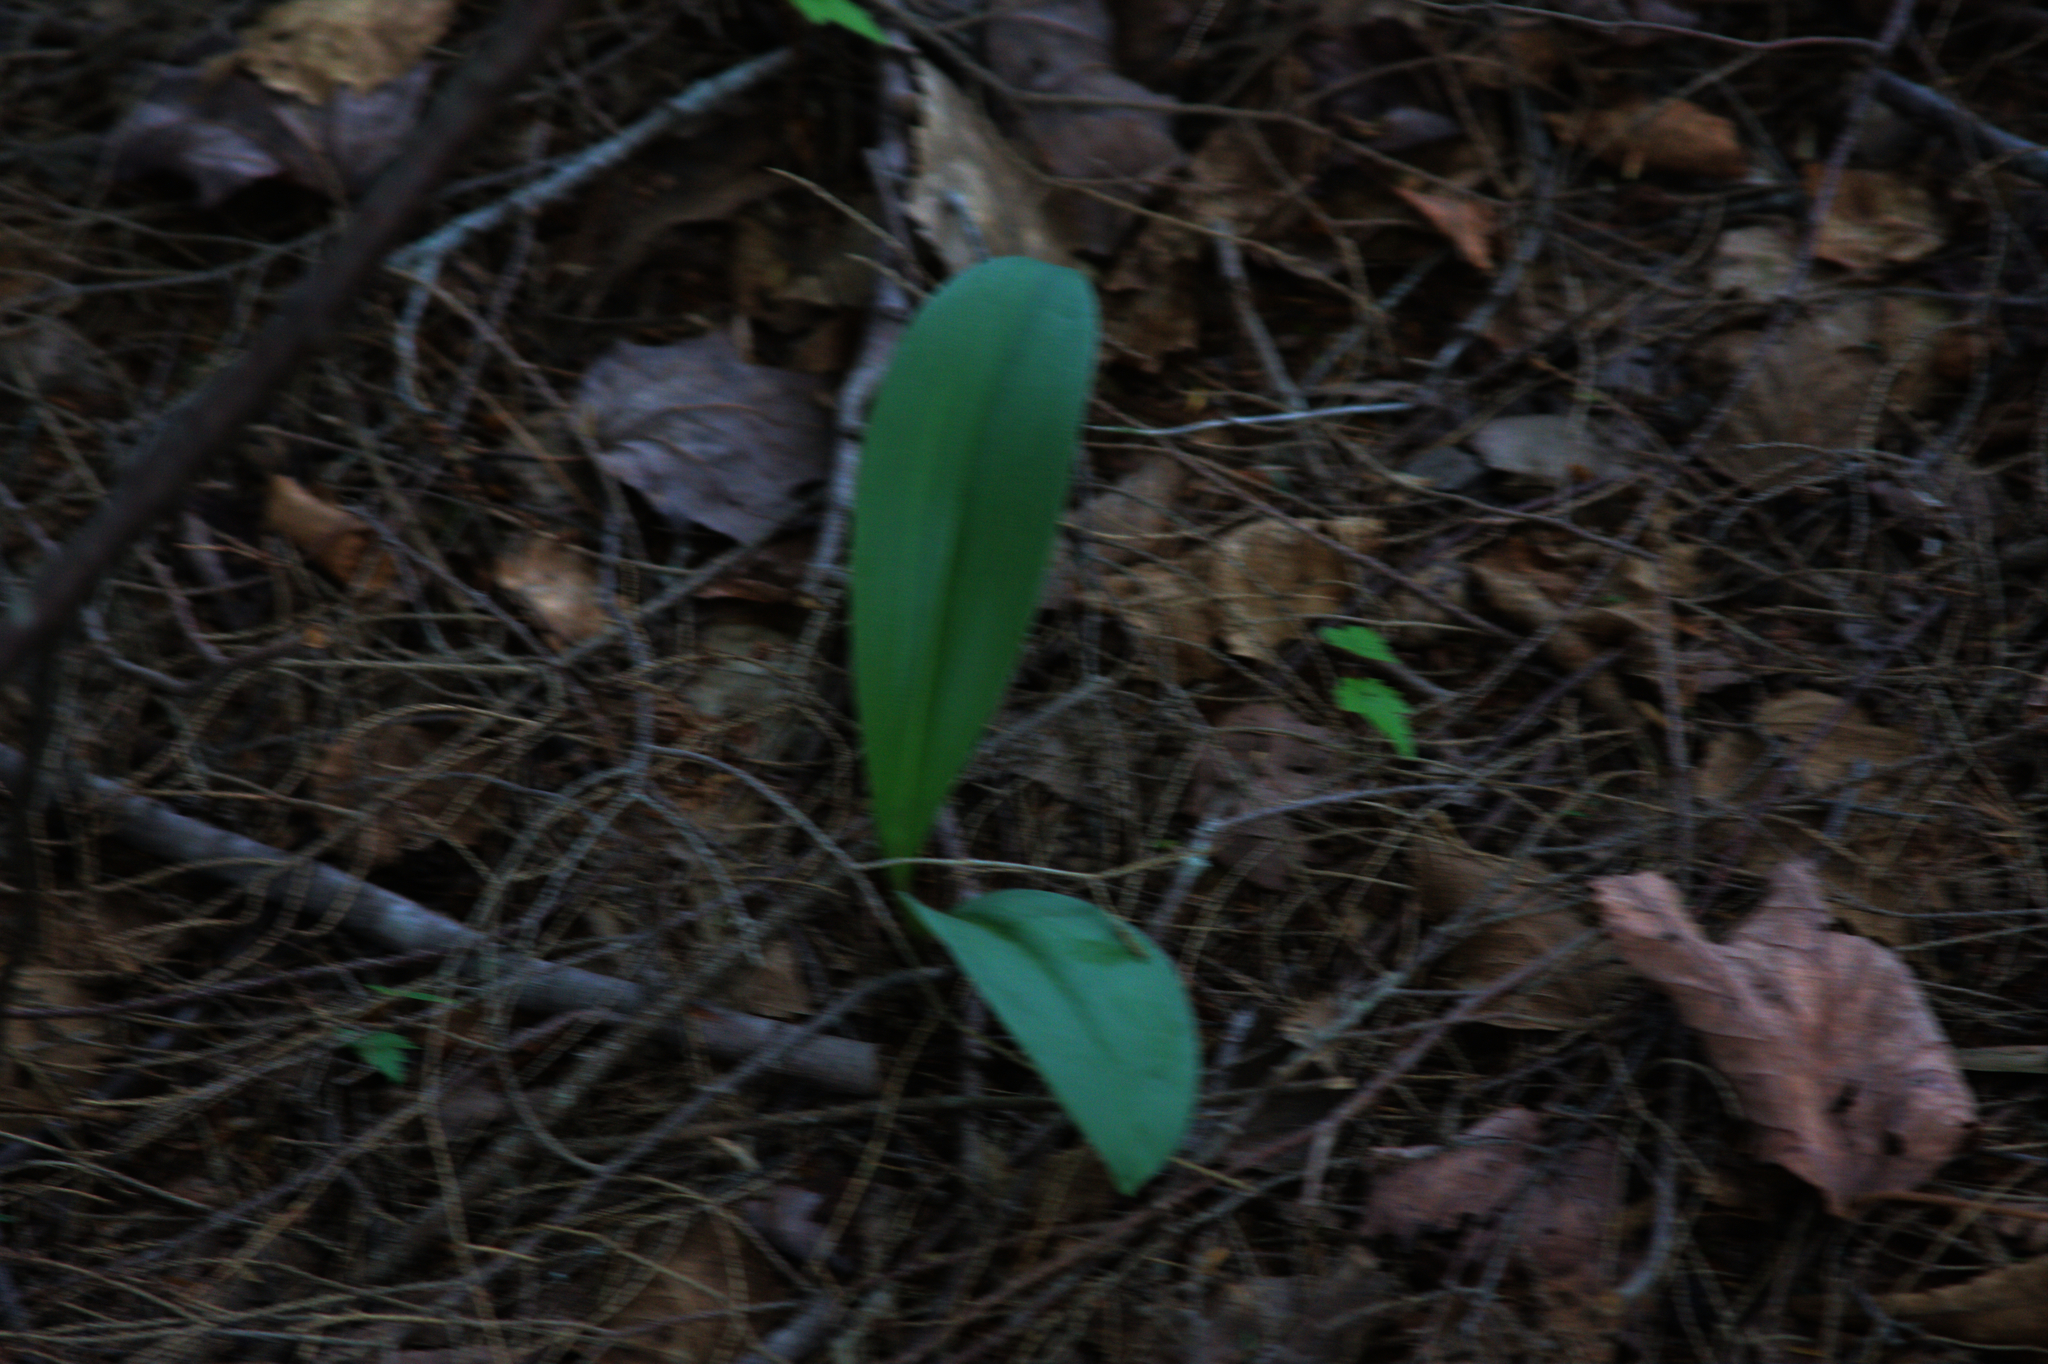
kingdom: Plantae
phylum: Tracheophyta
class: Liliopsida
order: Liliales
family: Liliaceae
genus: Clintonia
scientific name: Clintonia borealis
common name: Yellow clintonia
